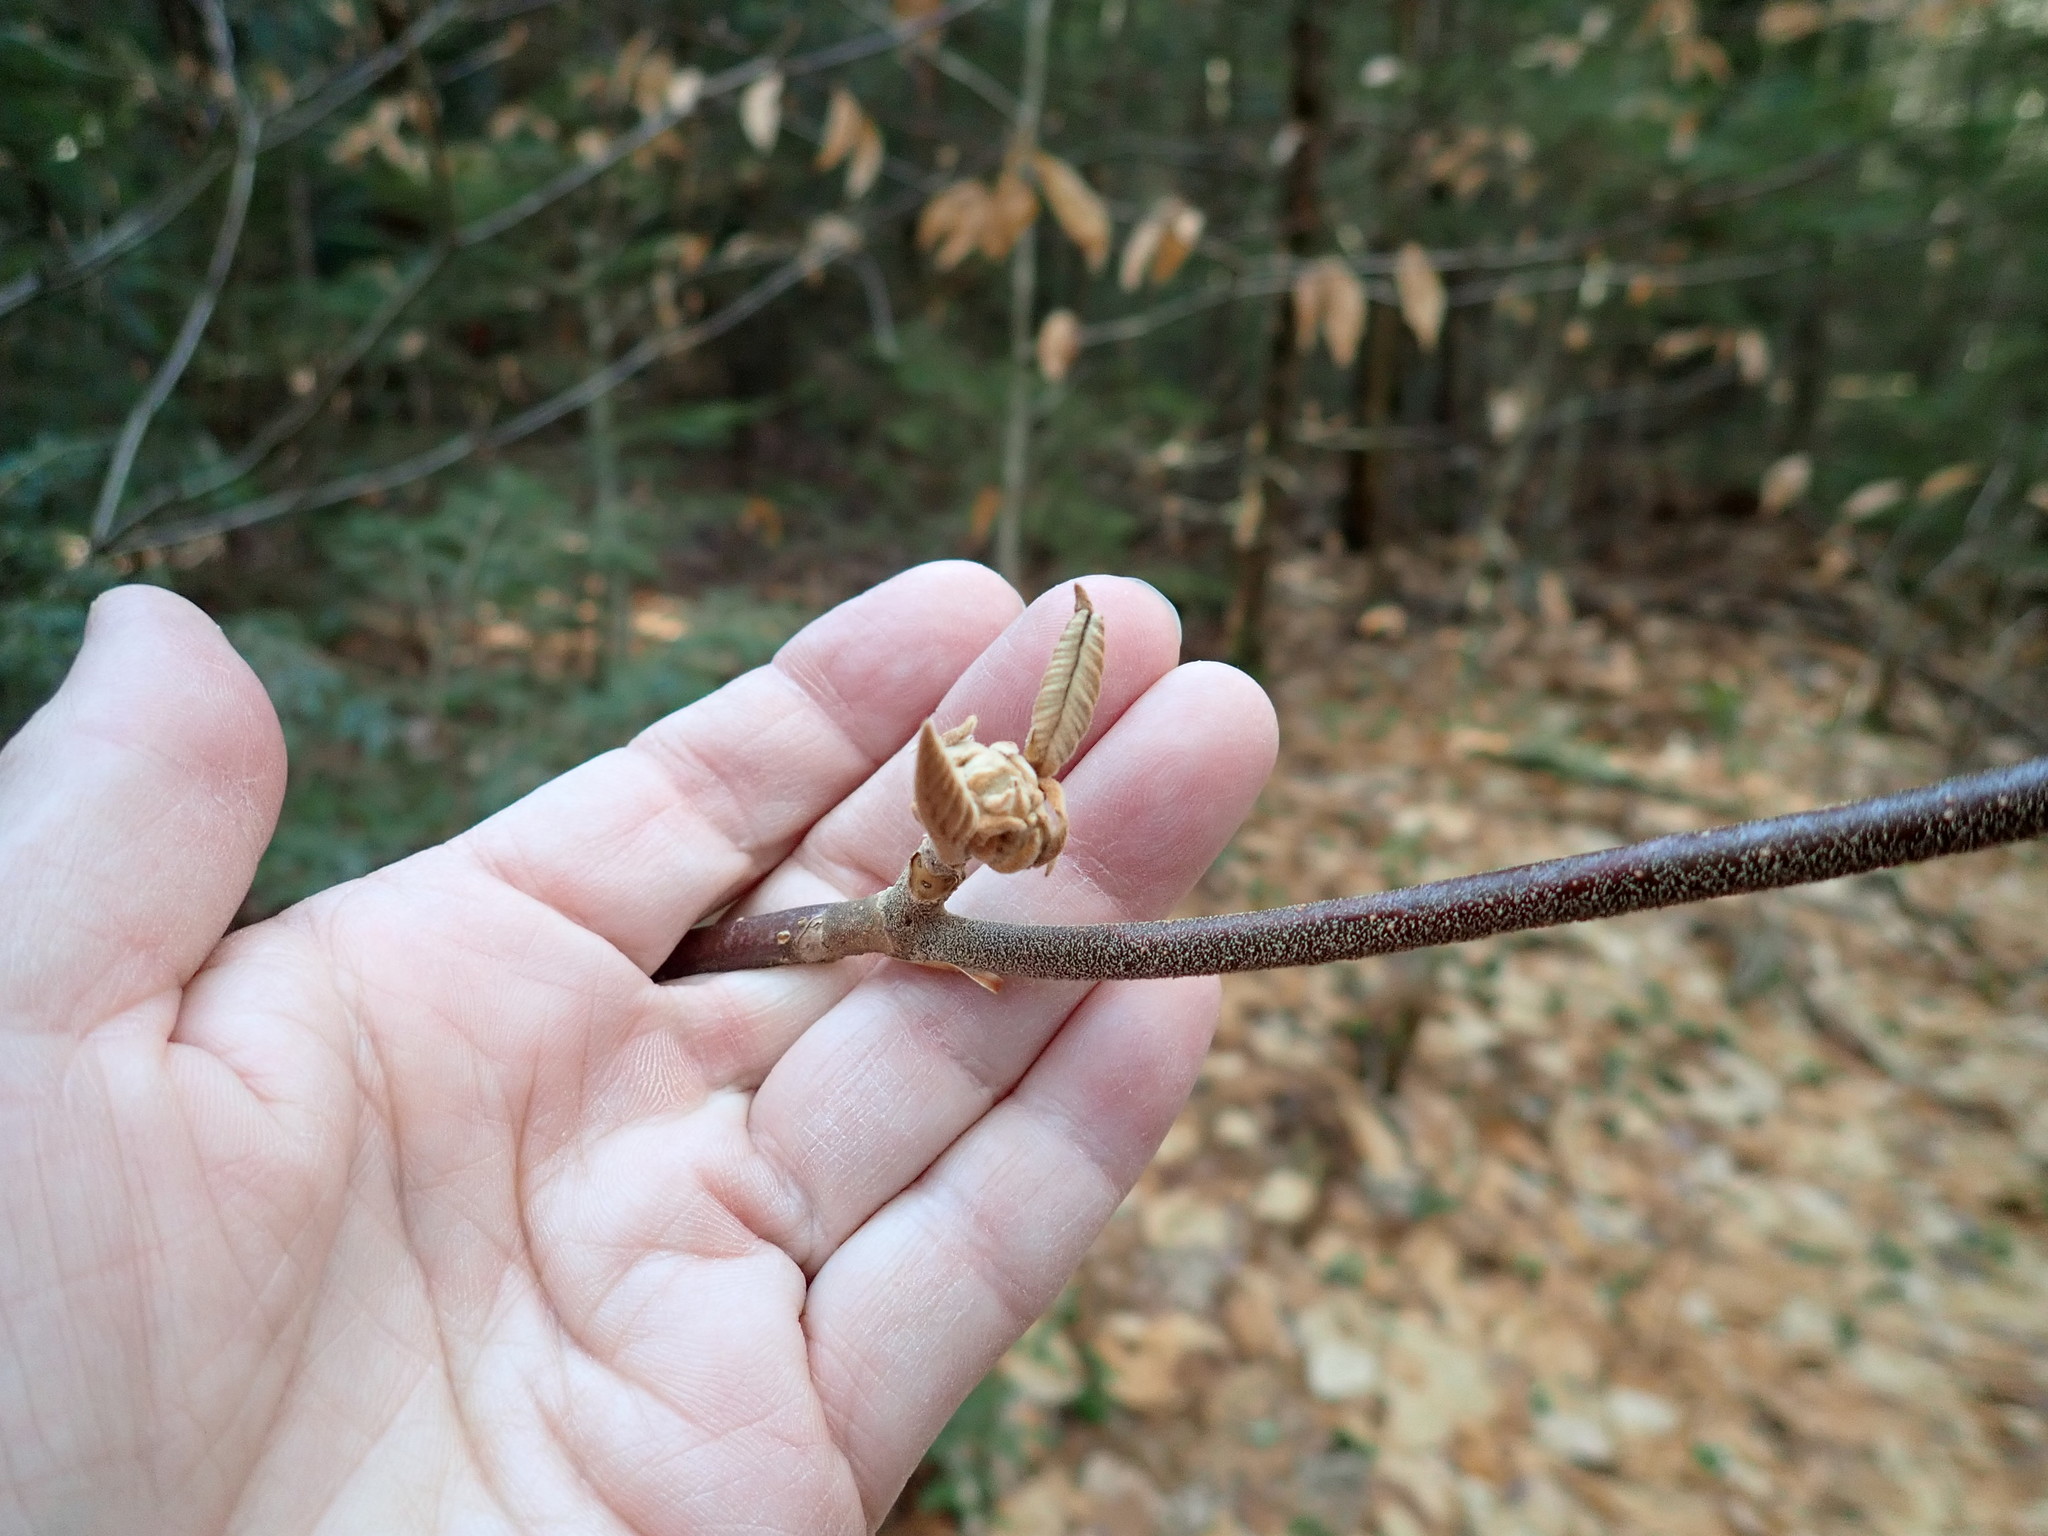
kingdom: Plantae
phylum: Tracheophyta
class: Magnoliopsida
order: Dipsacales
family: Viburnaceae
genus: Viburnum
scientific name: Viburnum lantanoides
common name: Hobblebush
